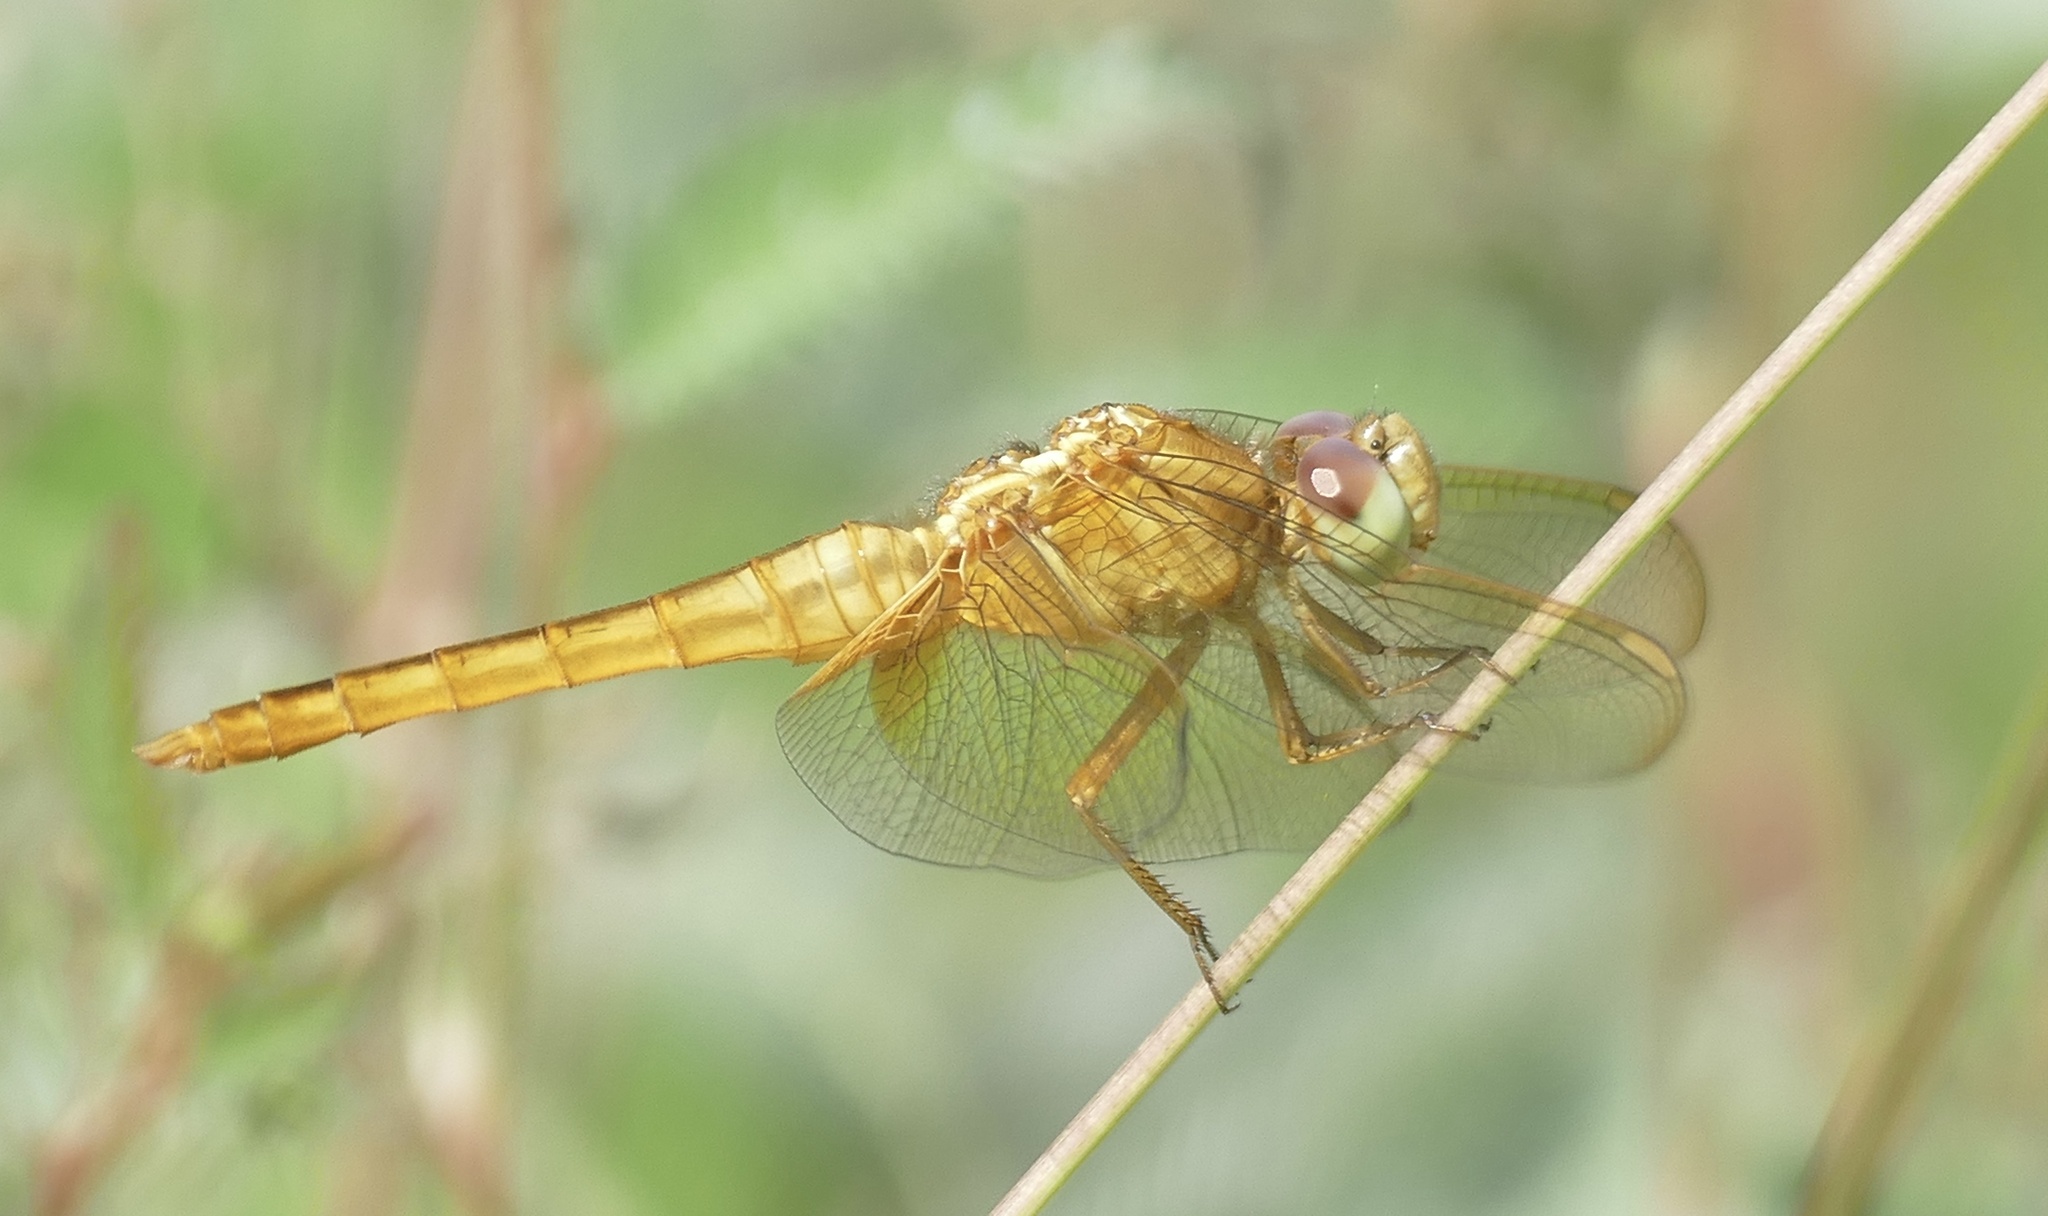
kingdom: Animalia
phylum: Arthropoda
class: Insecta
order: Odonata
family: Libellulidae
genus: Crocothemis
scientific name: Crocothemis servilia
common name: Scarlet skimmer
